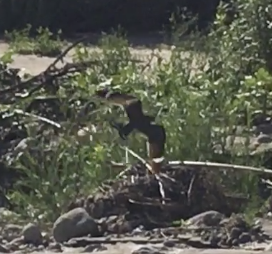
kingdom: Animalia
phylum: Chordata
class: Aves
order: Caprimulgiformes
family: Caprimulgidae
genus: Chordeiles
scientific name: Chordeiles acutipennis
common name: Lesser nighthawk
